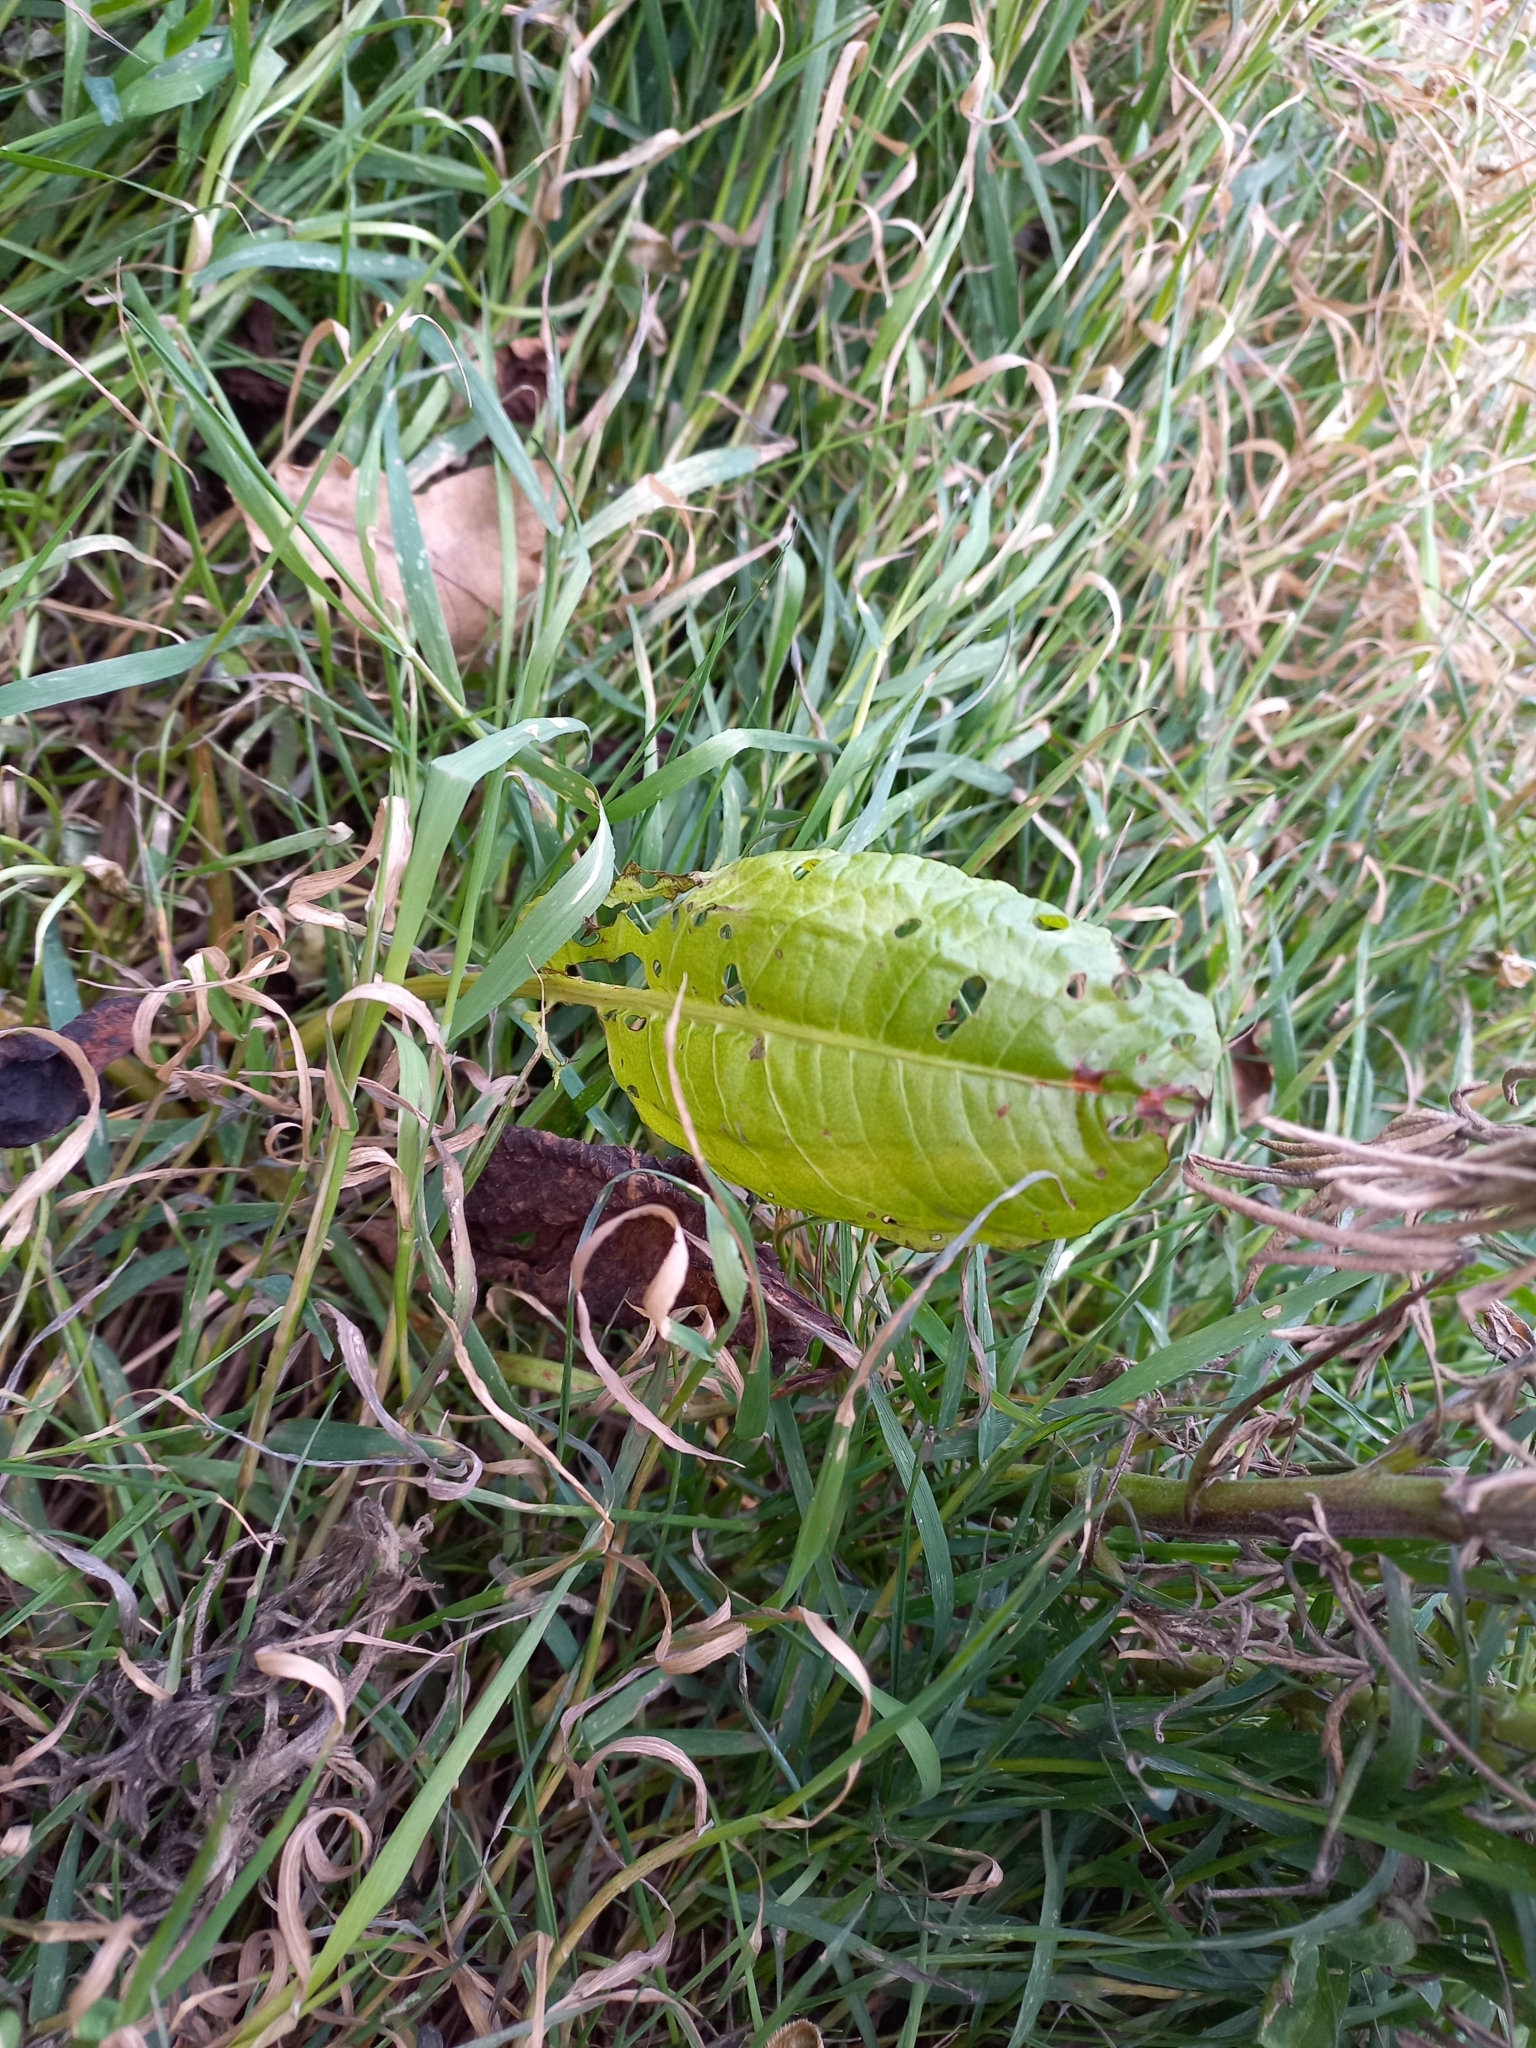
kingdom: Plantae
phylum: Tracheophyta
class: Magnoliopsida
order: Caryophyllales
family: Polygonaceae
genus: Rumex
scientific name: Rumex obtusifolius
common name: Bitter dock
